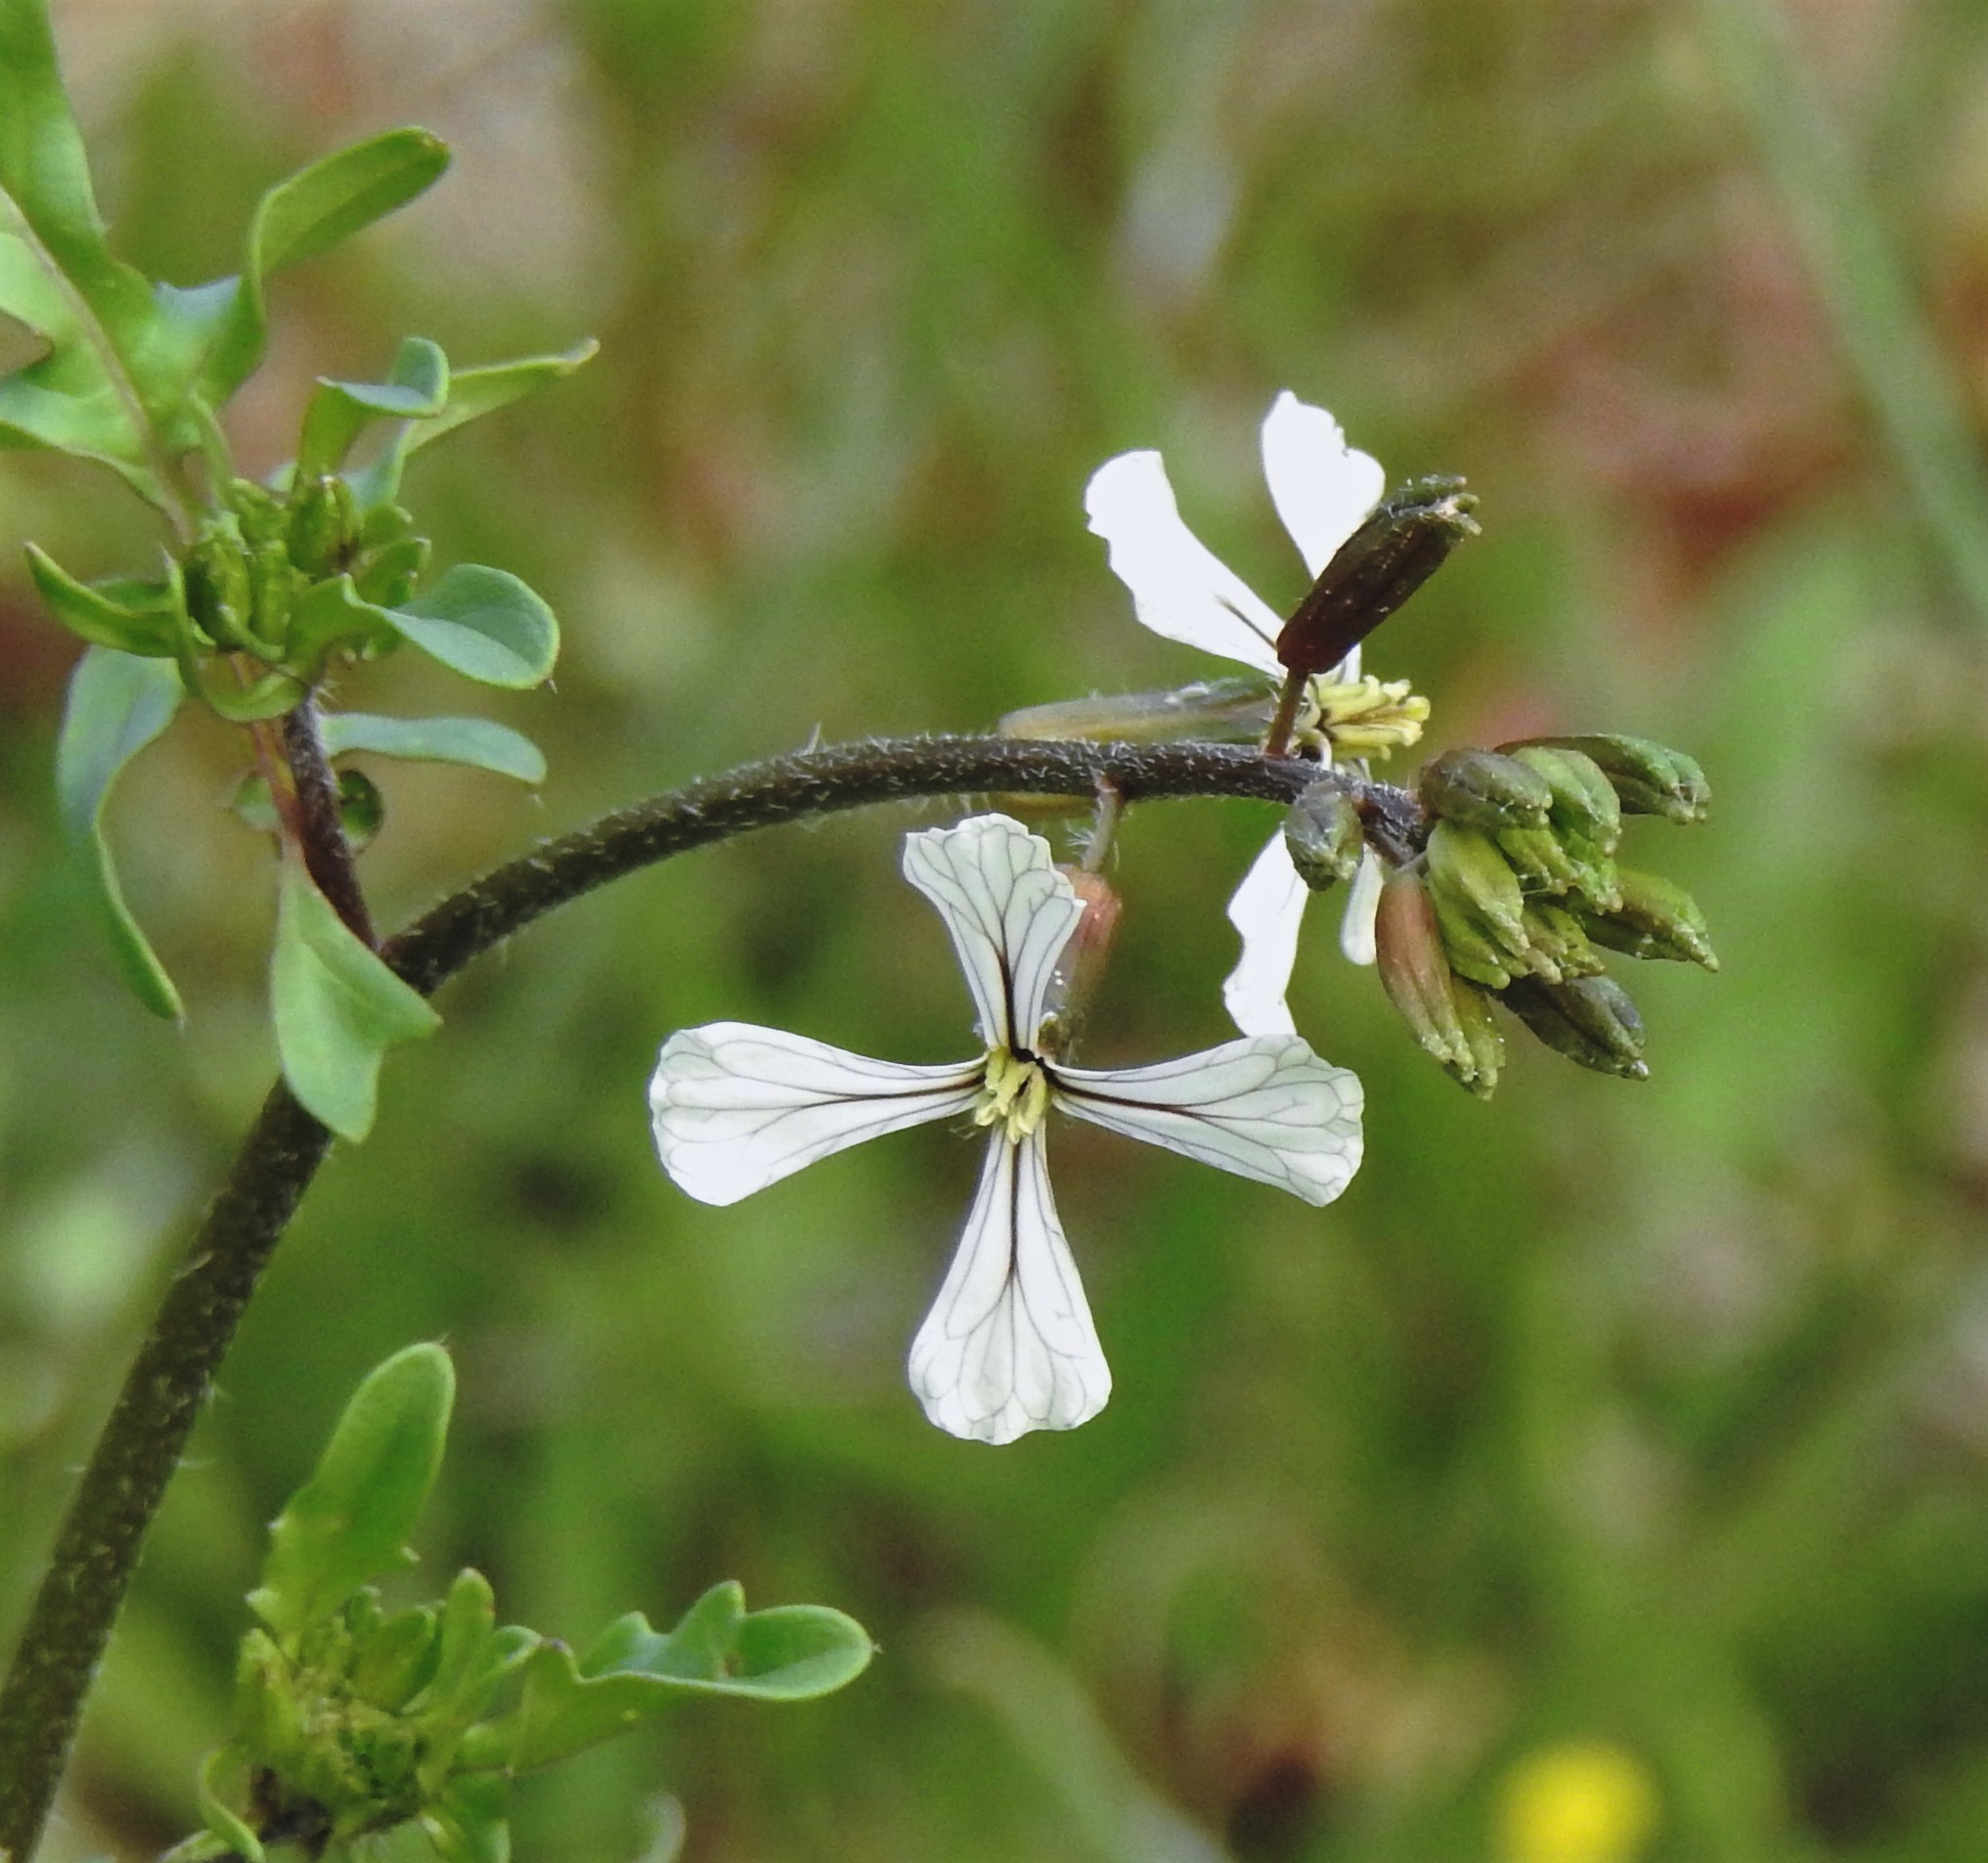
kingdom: Plantae
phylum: Tracheophyta
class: Magnoliopsida
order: Brassicales
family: Brassicaceae
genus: Eruca
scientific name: Eruca vesicaria
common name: Garden rocket
